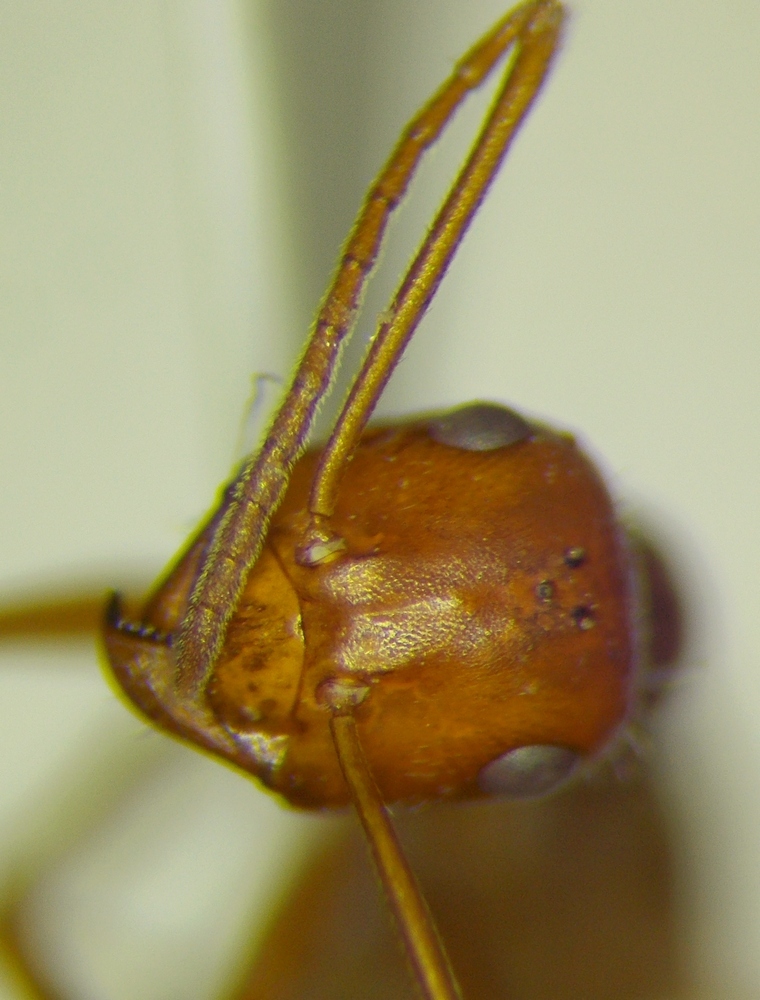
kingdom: Animalia
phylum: Arthropoda
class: Insecta
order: Hymenoptera
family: Formicidae
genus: Myrmecocystus
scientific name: Myrmecocystus wheeleri
